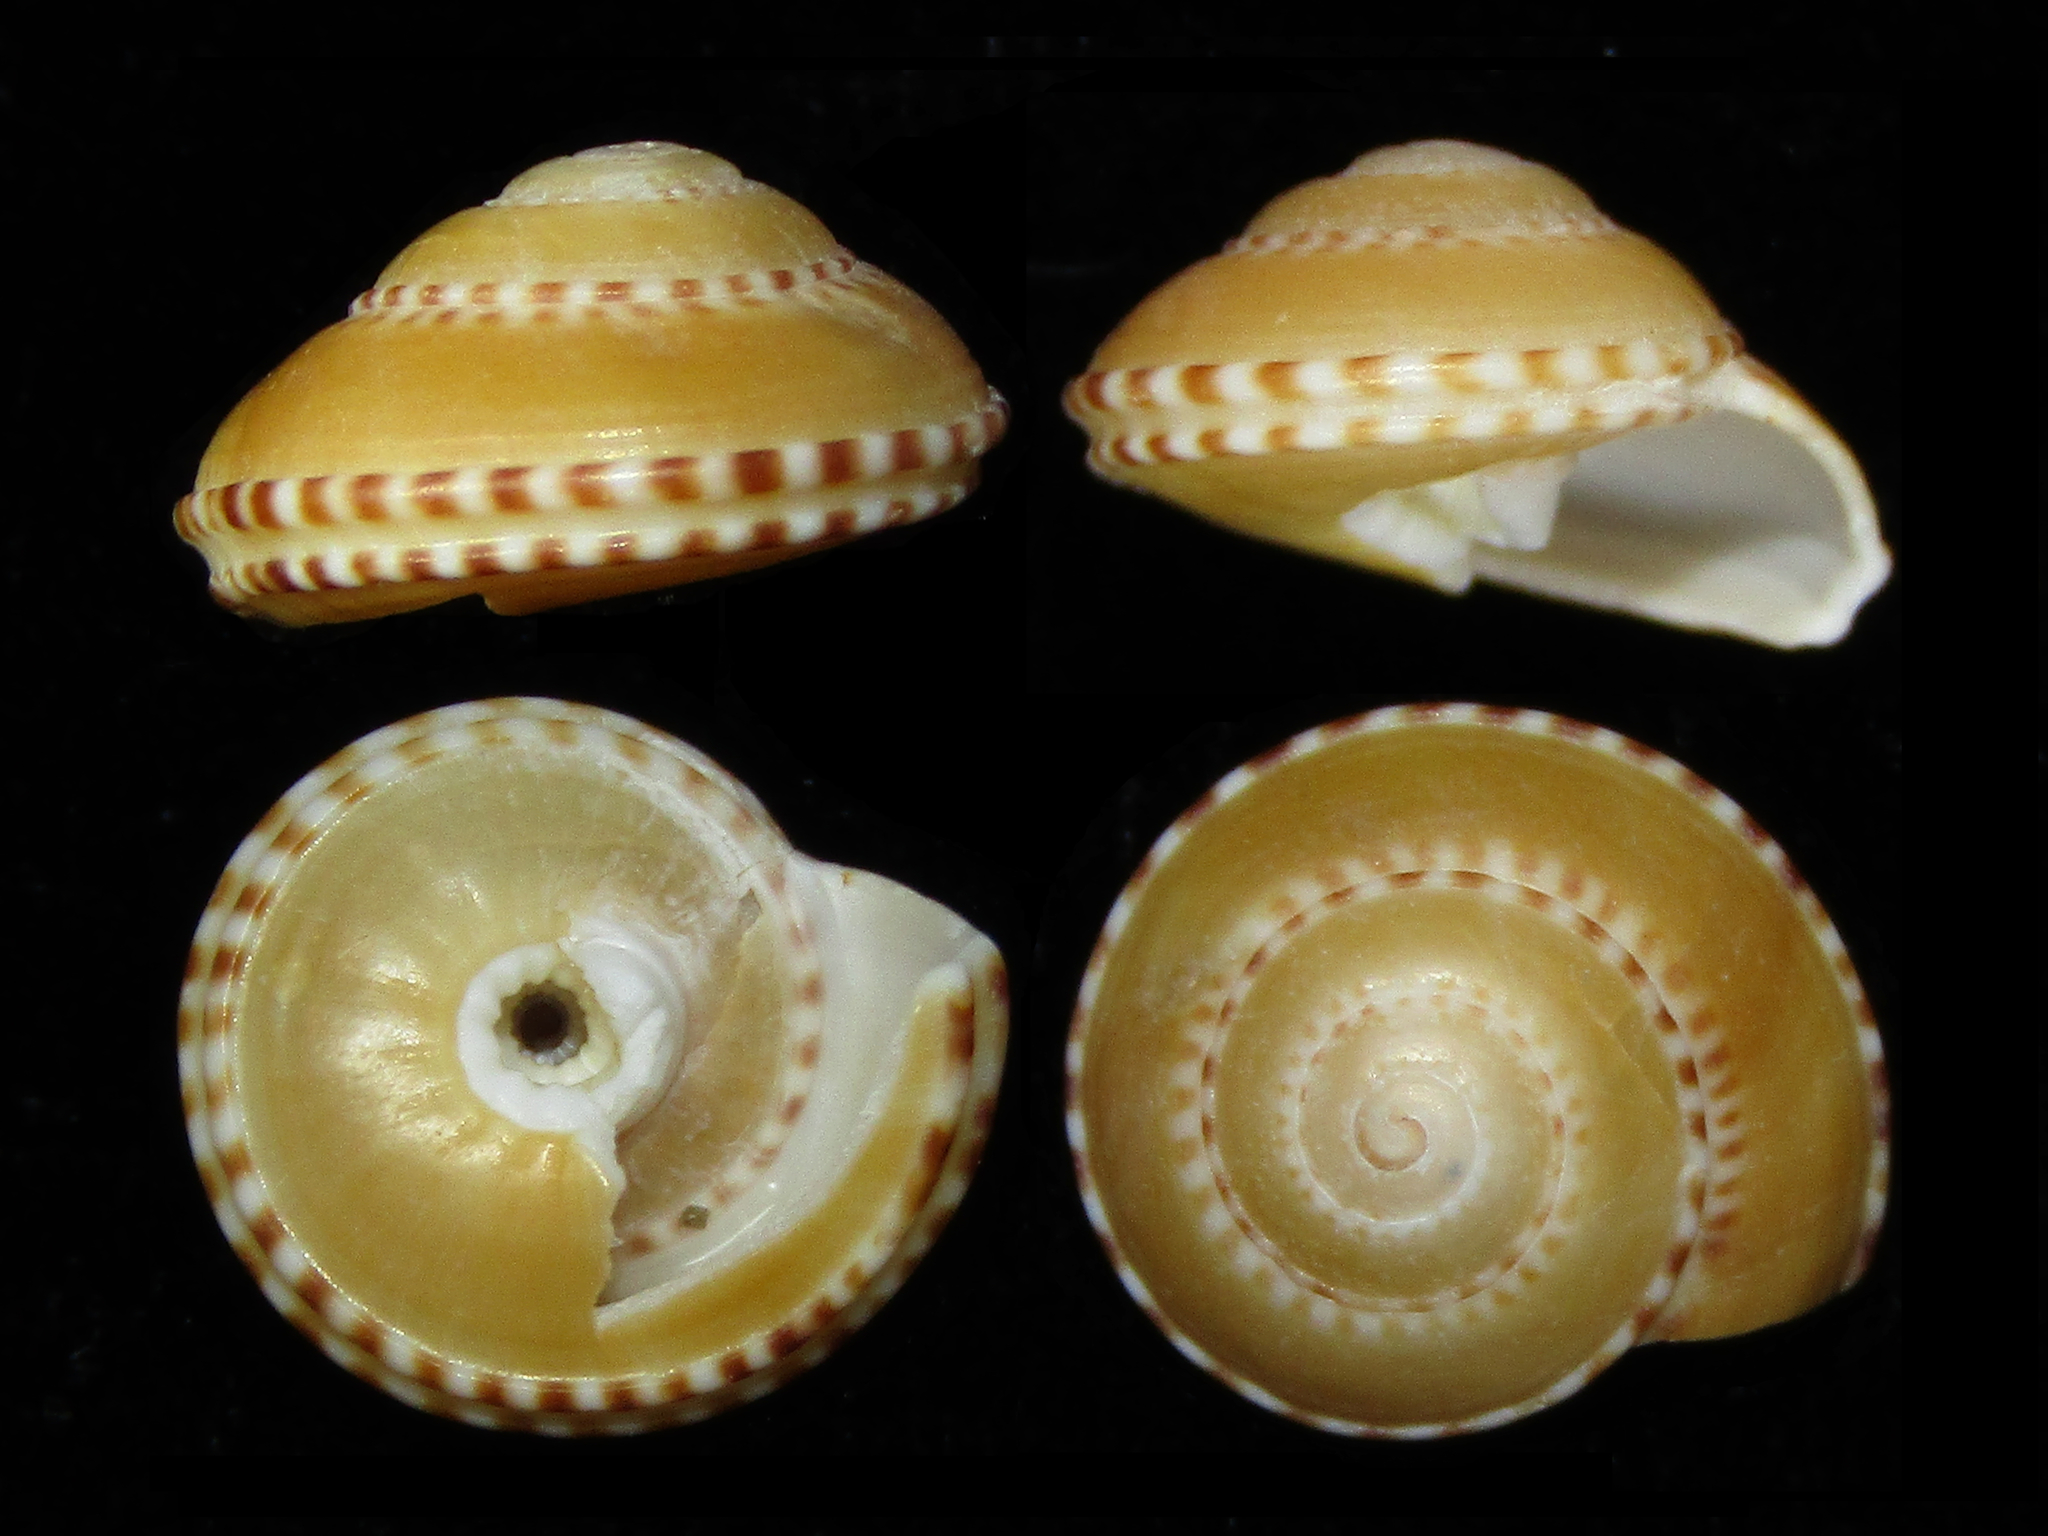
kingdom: Animalia
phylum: Mollusca
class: Gastropoda
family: Architectonicidae
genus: Philippia
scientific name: Philippia lutea
